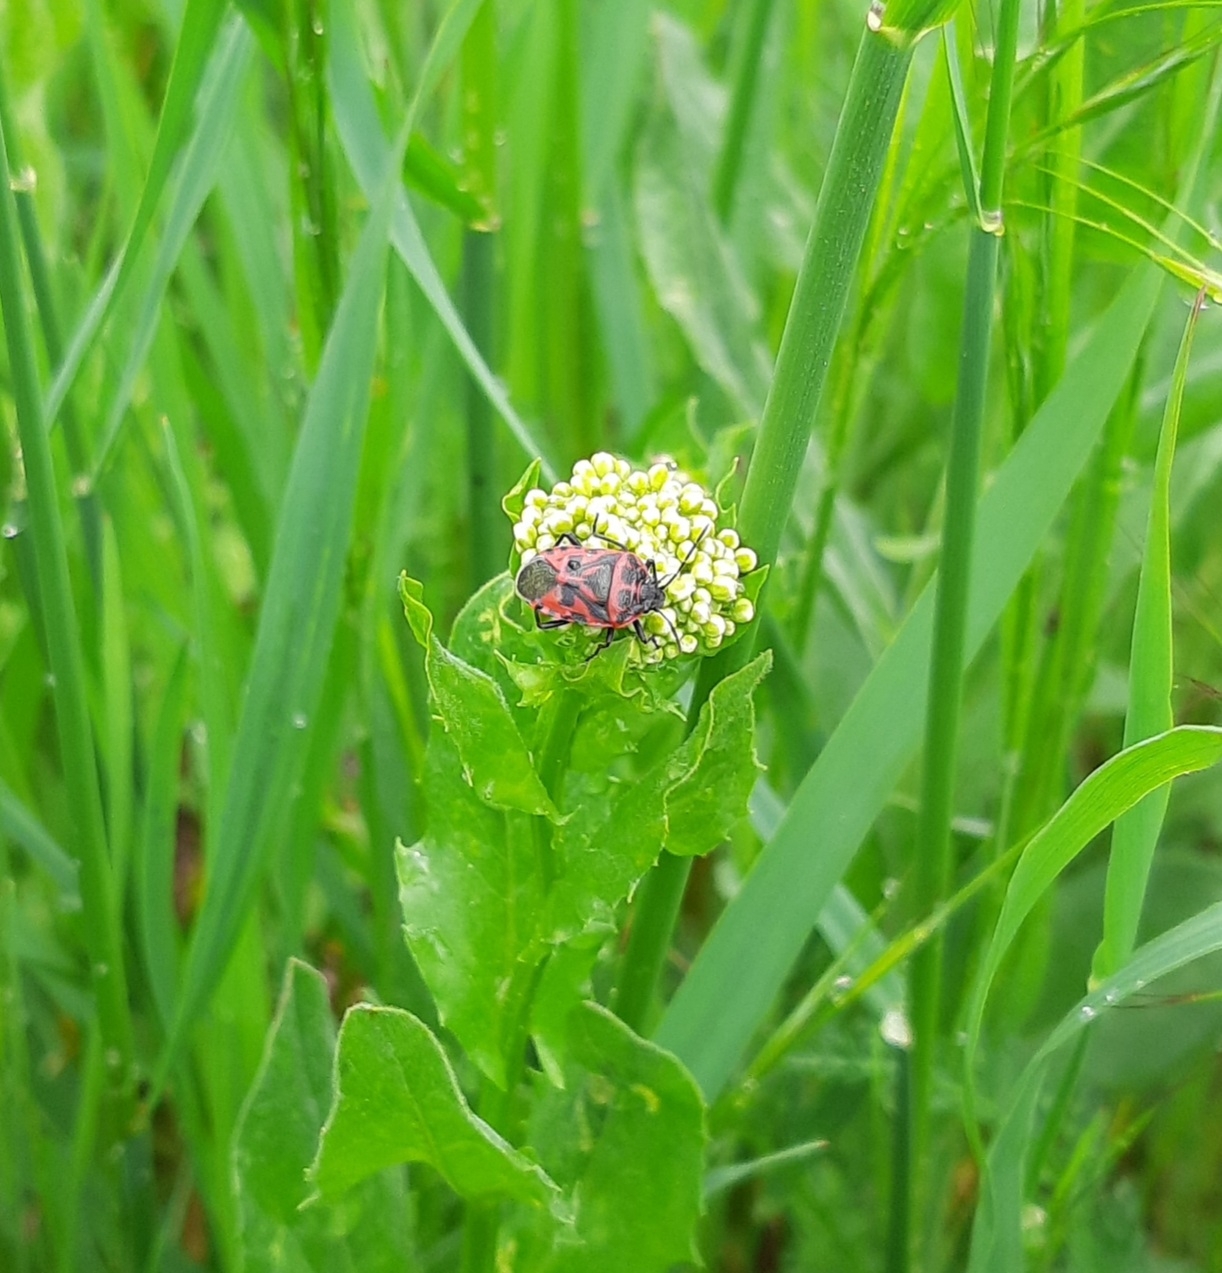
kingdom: Animalia
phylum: Arthropoda
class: Insecta
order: Hemiptera
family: Pentatomidae
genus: Eurydema
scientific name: Eurydema ventralis
